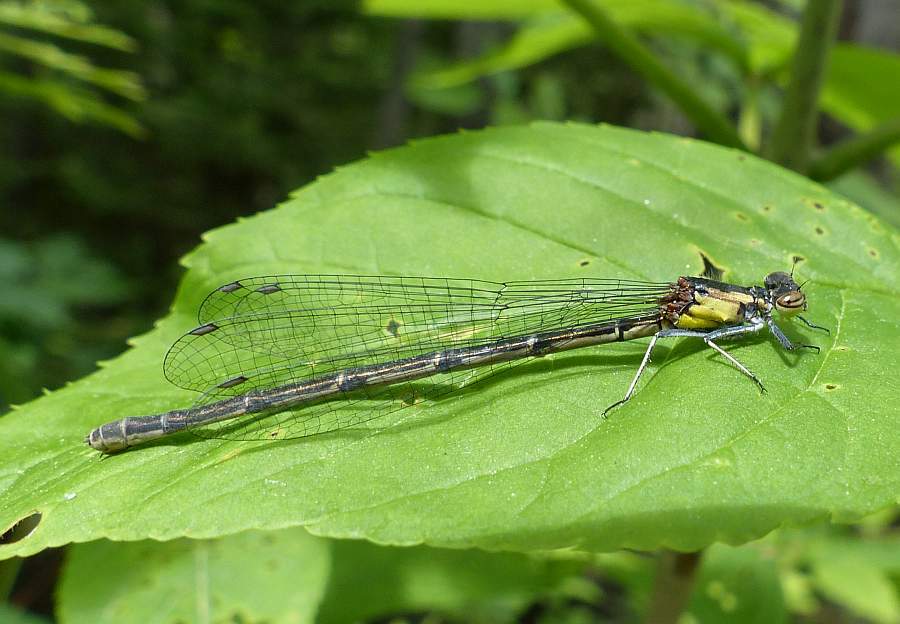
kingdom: Animalia
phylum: Arthropoda
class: Insecta
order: Odonata
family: Coenagrionidae
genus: Chromagrion
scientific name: Chromagrion conditum
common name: Aurora damsel
